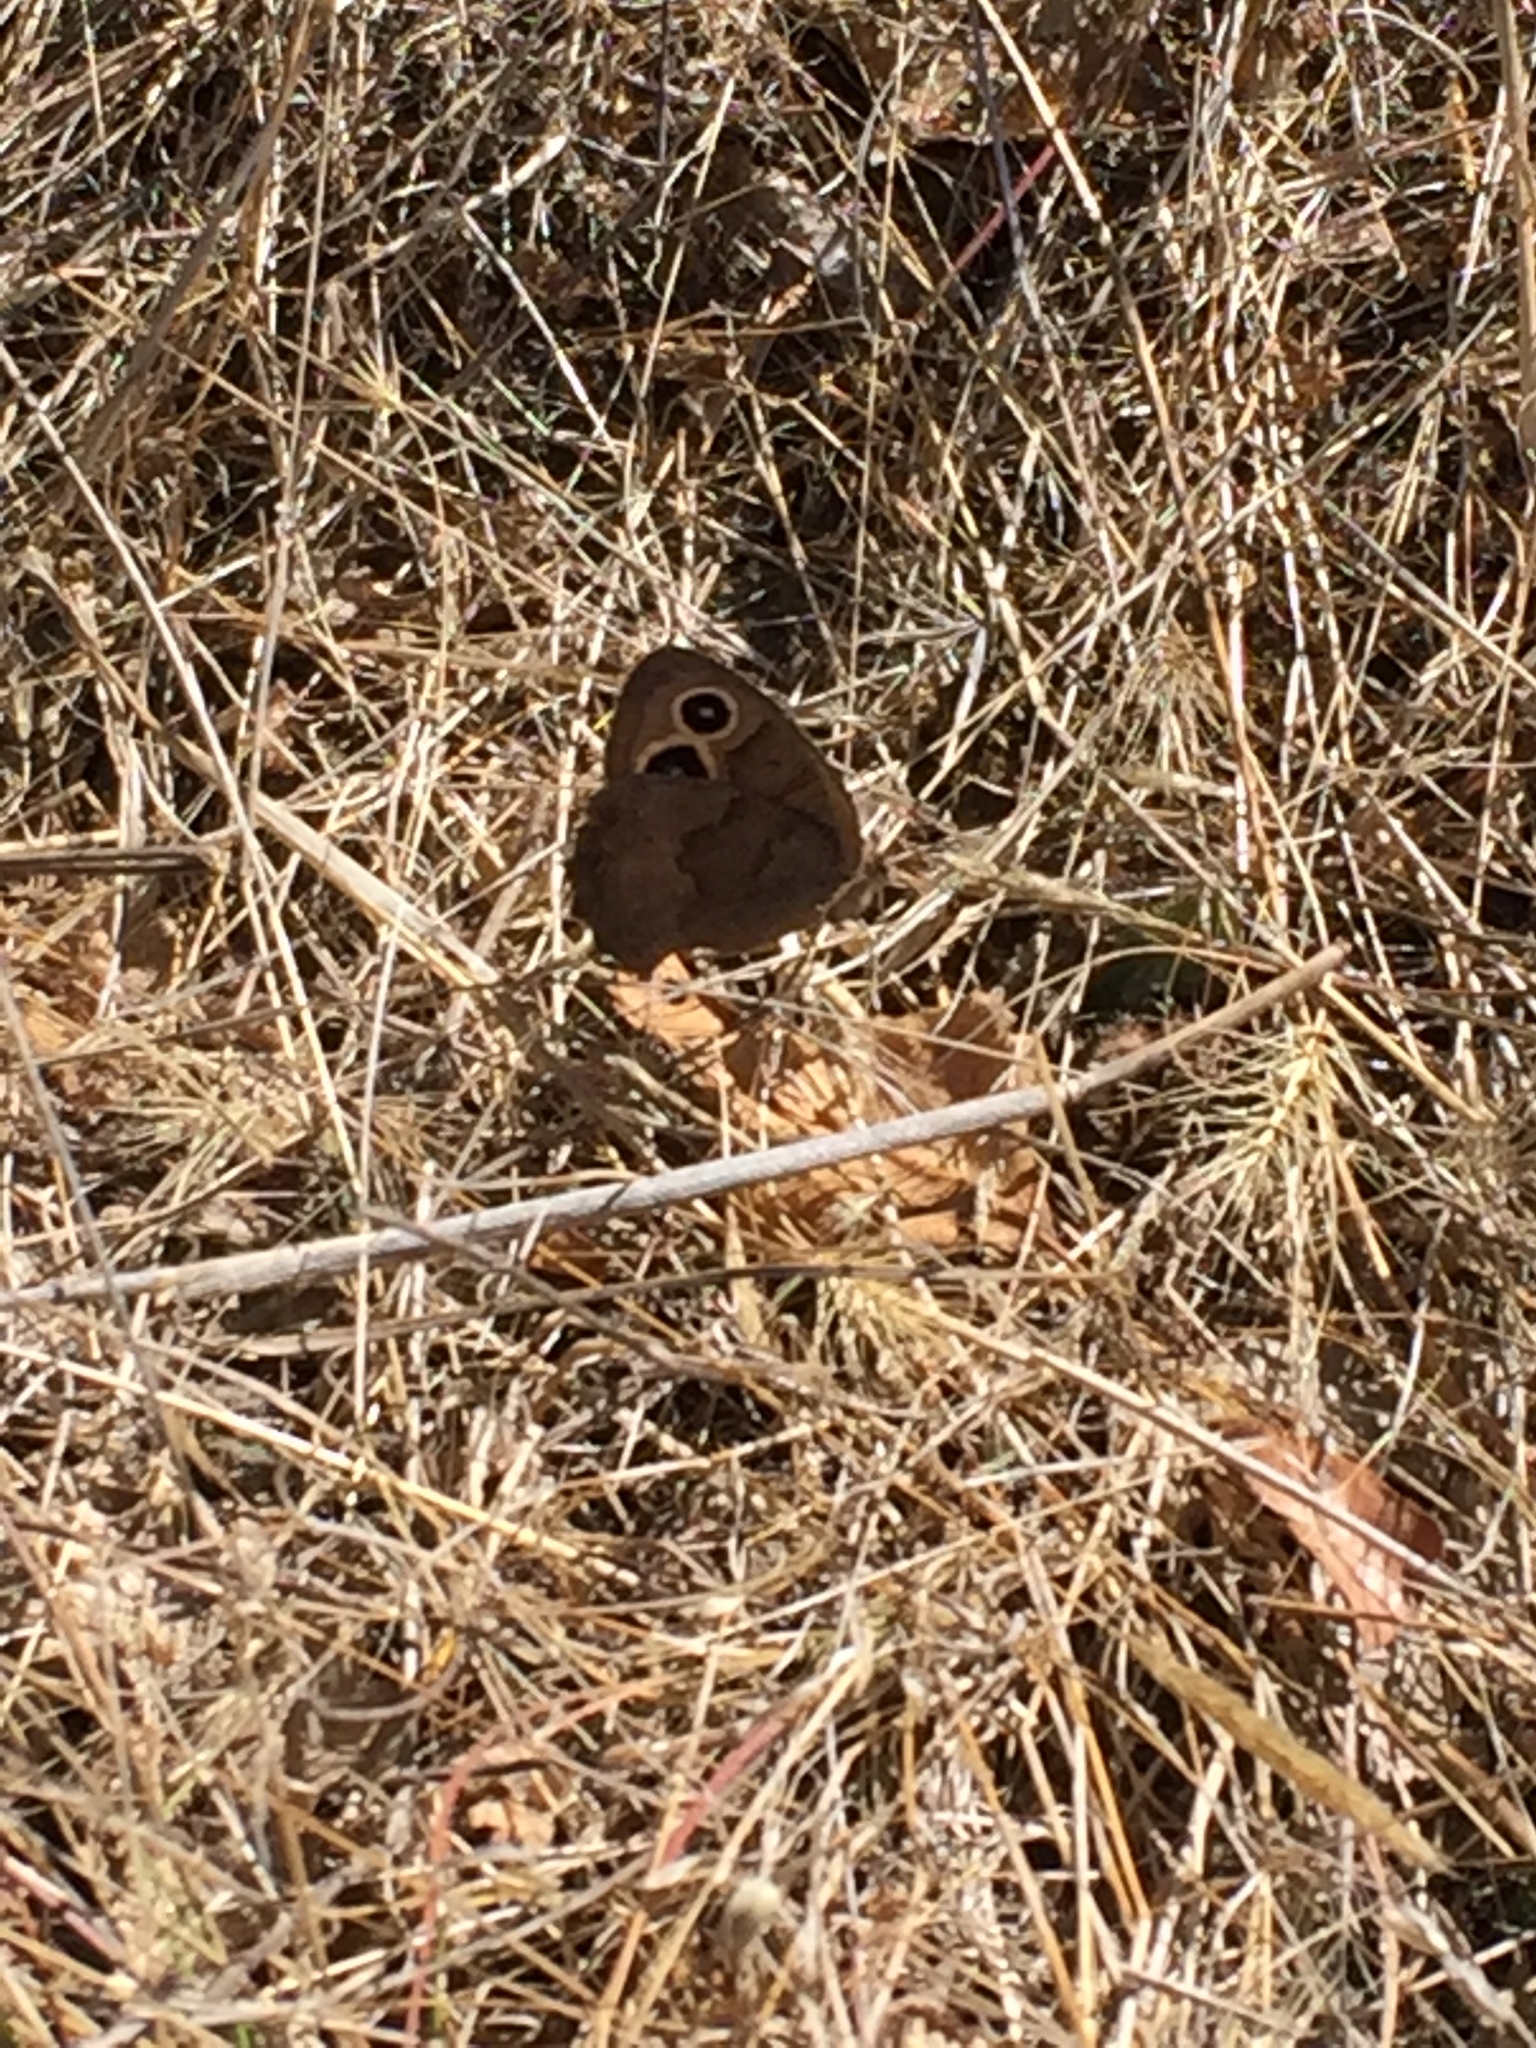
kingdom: Animalia
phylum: Arthropoda
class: Insecta
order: Lepidoptera
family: Nymphalidae
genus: Cercyonis
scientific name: Cercyonis pegala
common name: Common wood-nymph
